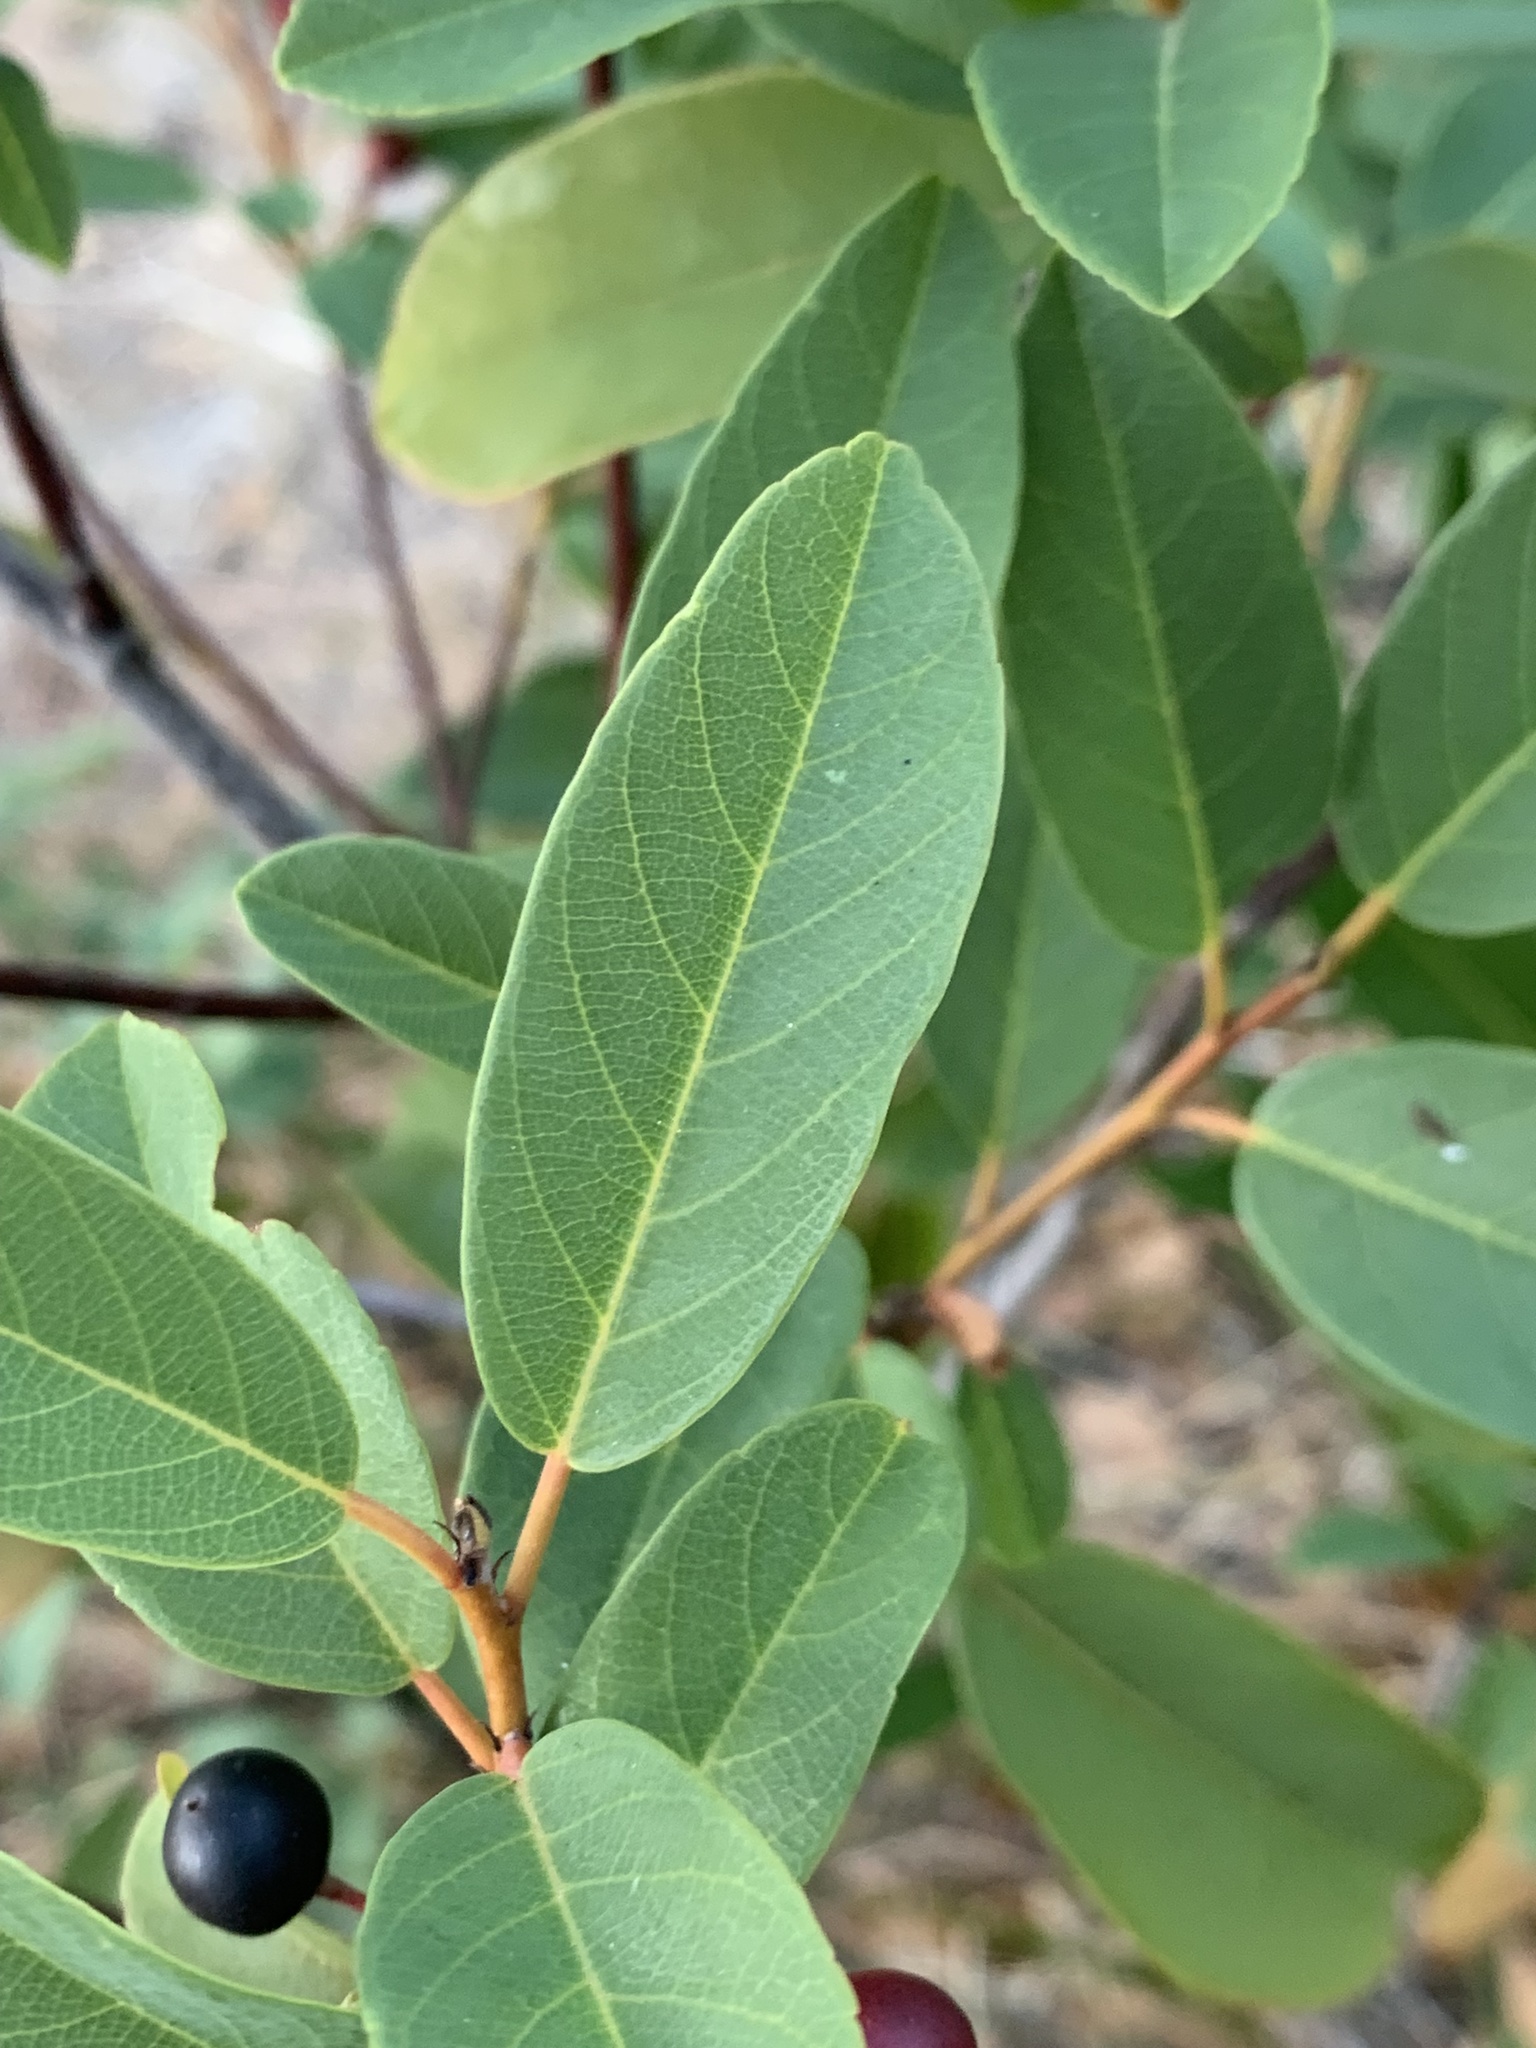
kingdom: Plantae
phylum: Tracheophyta
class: Magnoliopsida
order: Rosales
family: Rhamnaceae
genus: Frangula
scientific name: Frangula californica
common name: California buckthorn
